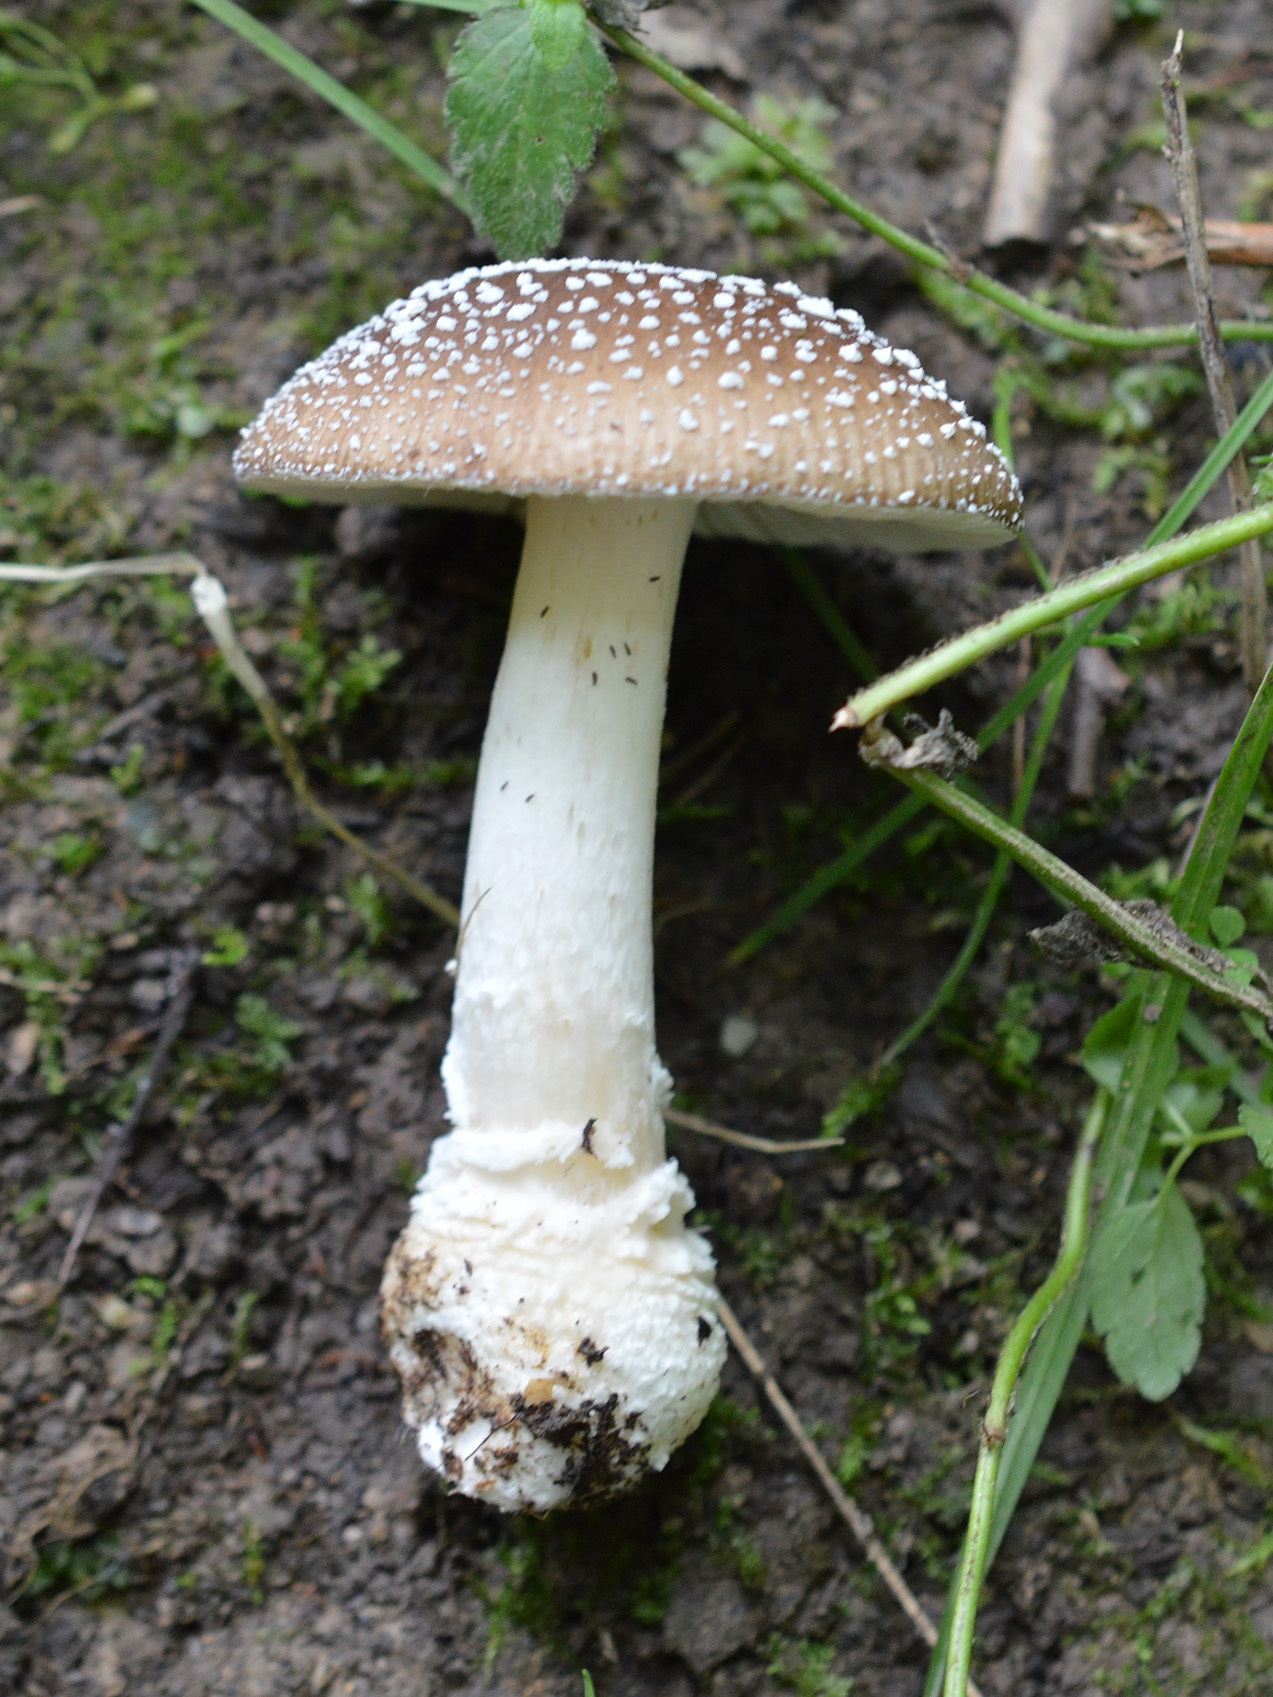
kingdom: Fungi
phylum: Basidiomycota
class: Agaricomycetes
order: Agaricales
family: Amanitaceae
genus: Amanita
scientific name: Amanita pantherina
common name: Panthercap
